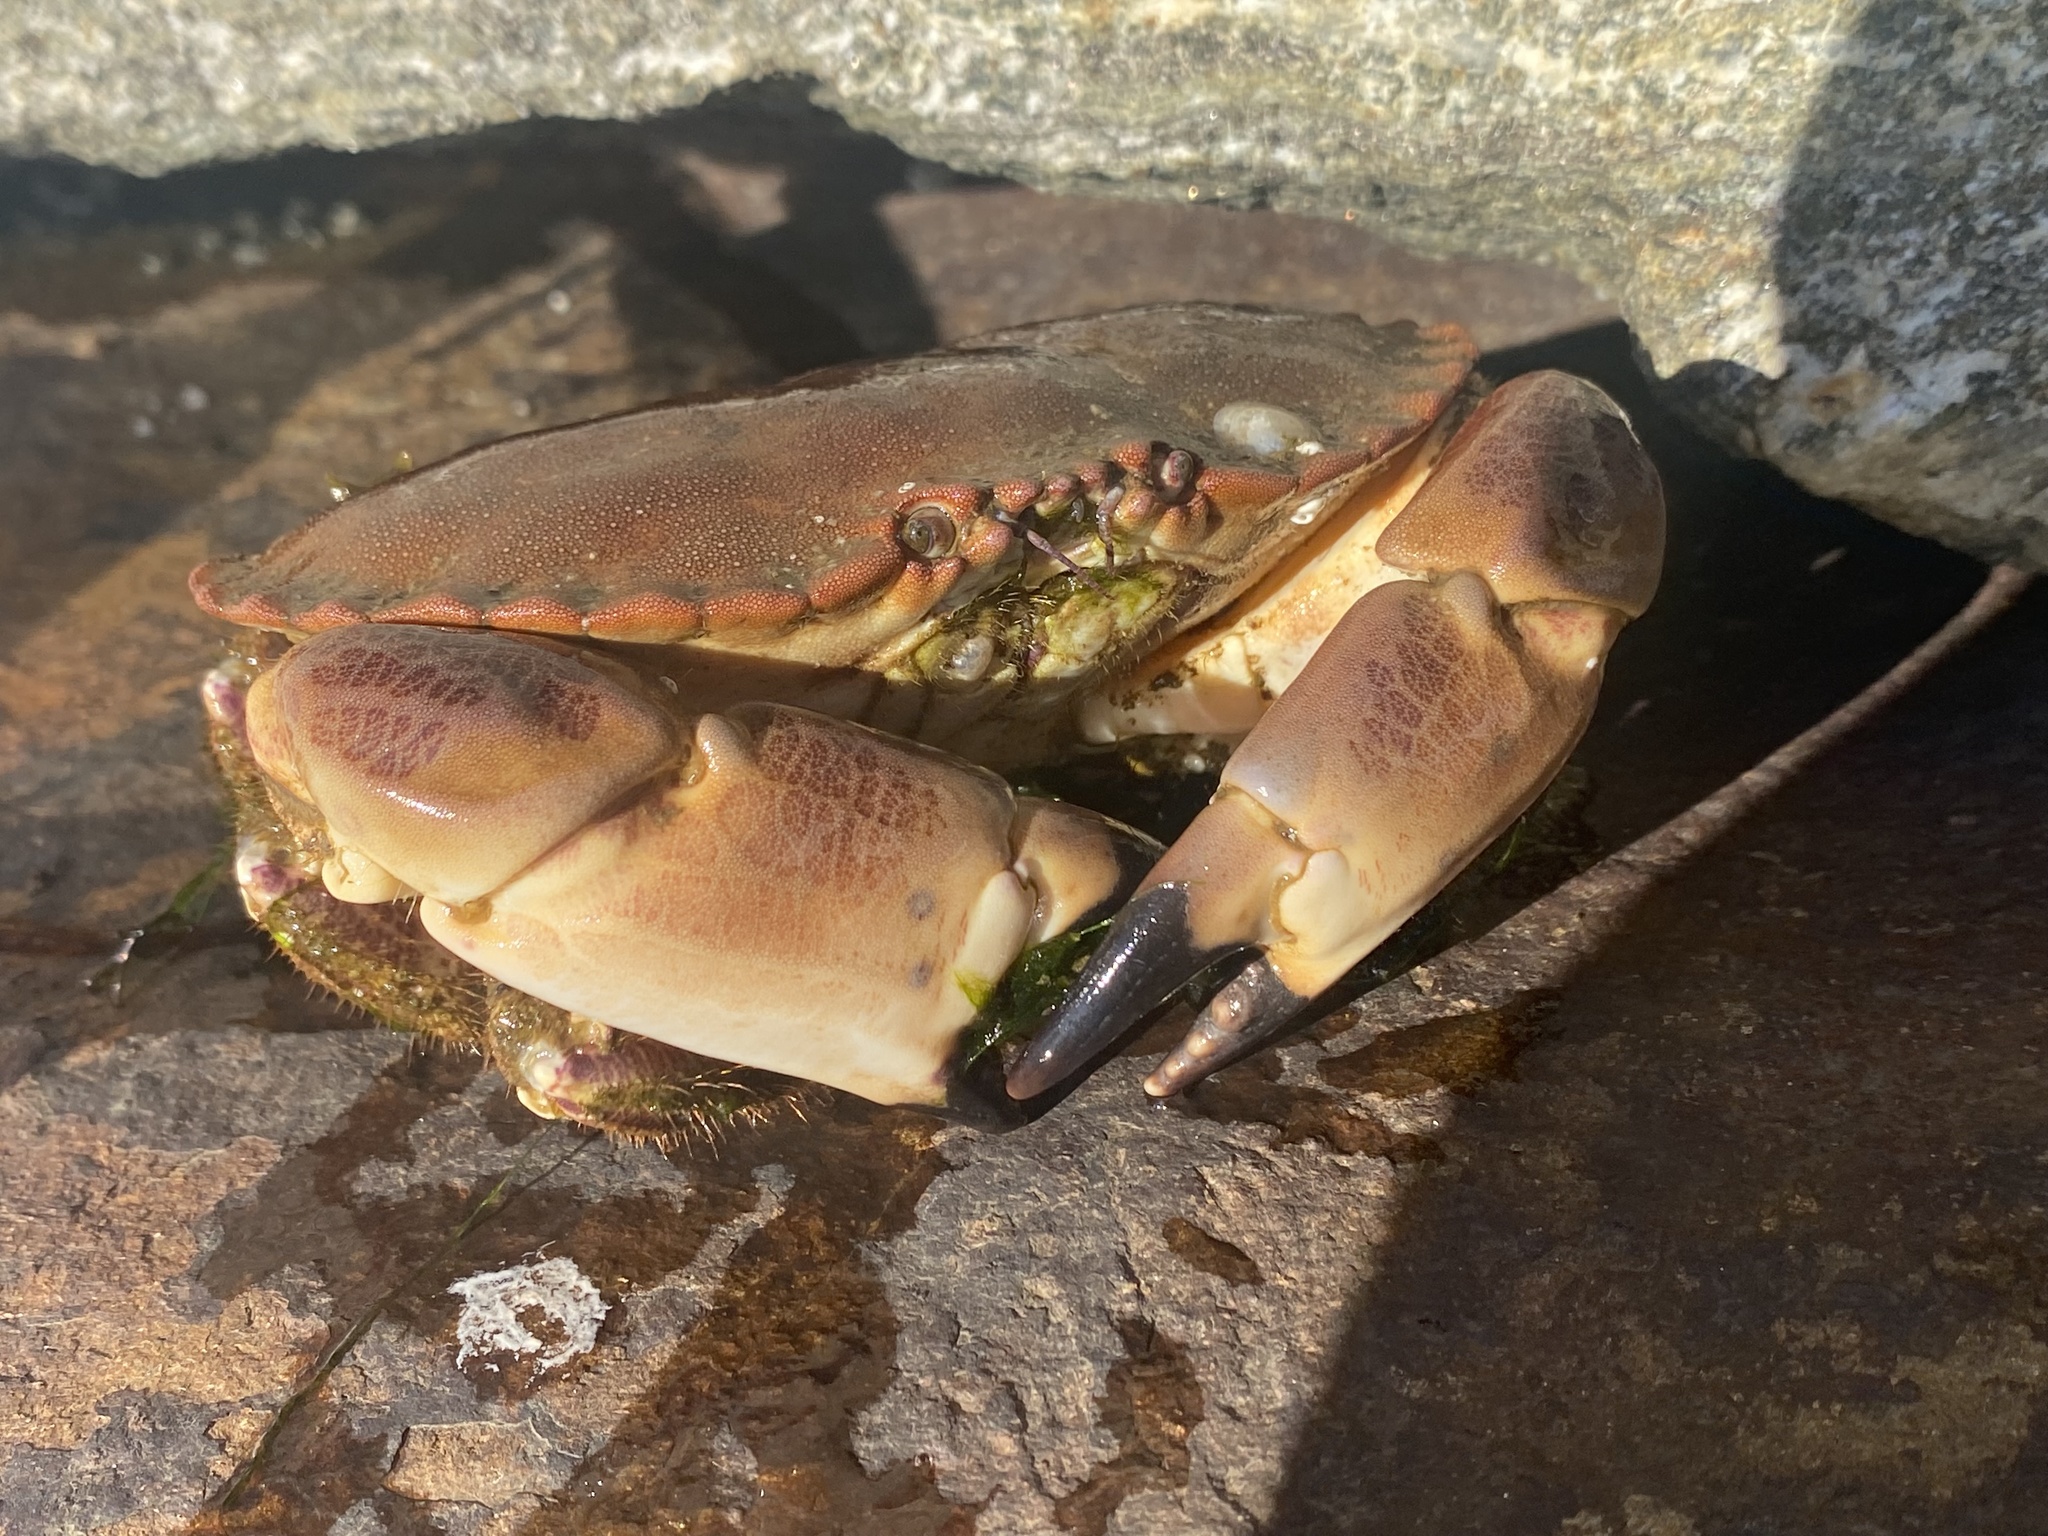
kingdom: Animalia
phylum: Arthropoda
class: Malacostraca
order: Decapoda
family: Cancridae
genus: Cancer
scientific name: Cancer pagurus
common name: Edible crab
